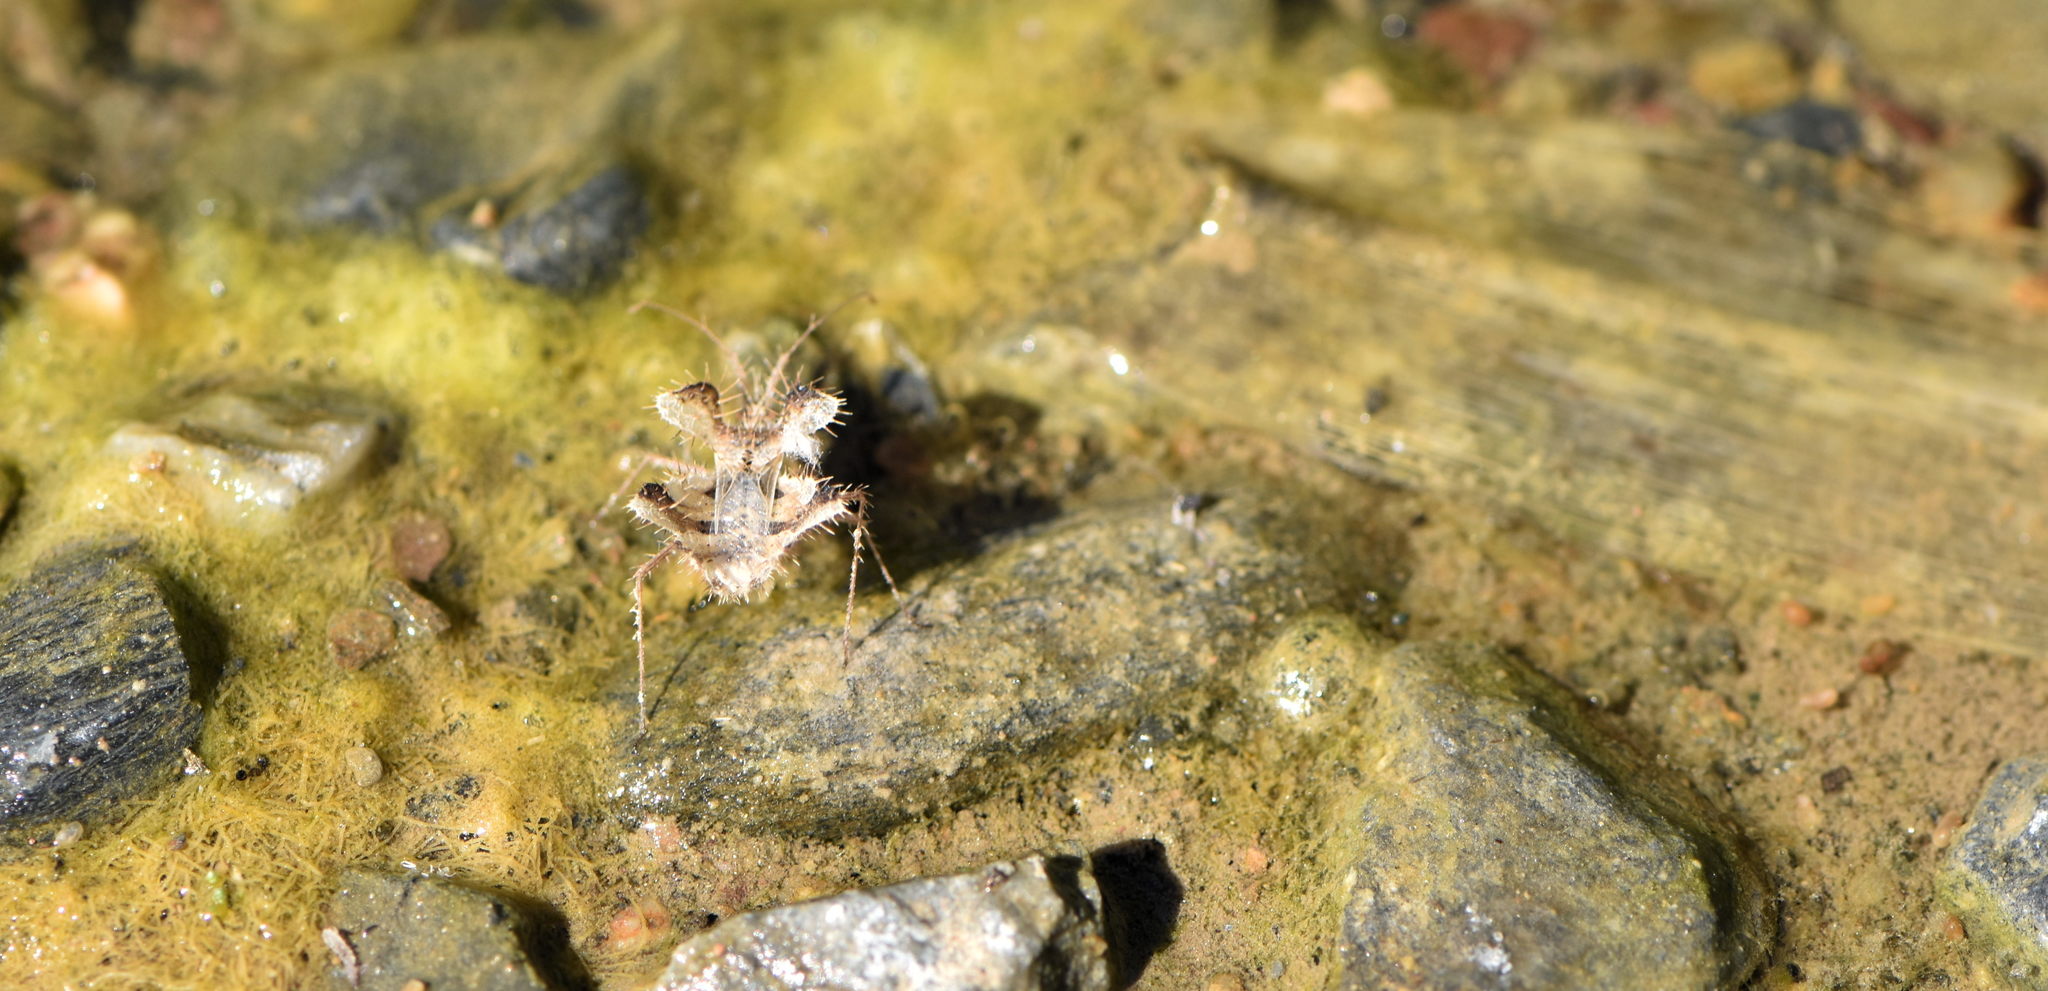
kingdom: Animalia
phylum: Arthropoda
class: Insecta
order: Hemiptera
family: Coreidae
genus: Phyllomorpha
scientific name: Phyllomorpha laciniata
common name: Golden egg bug
